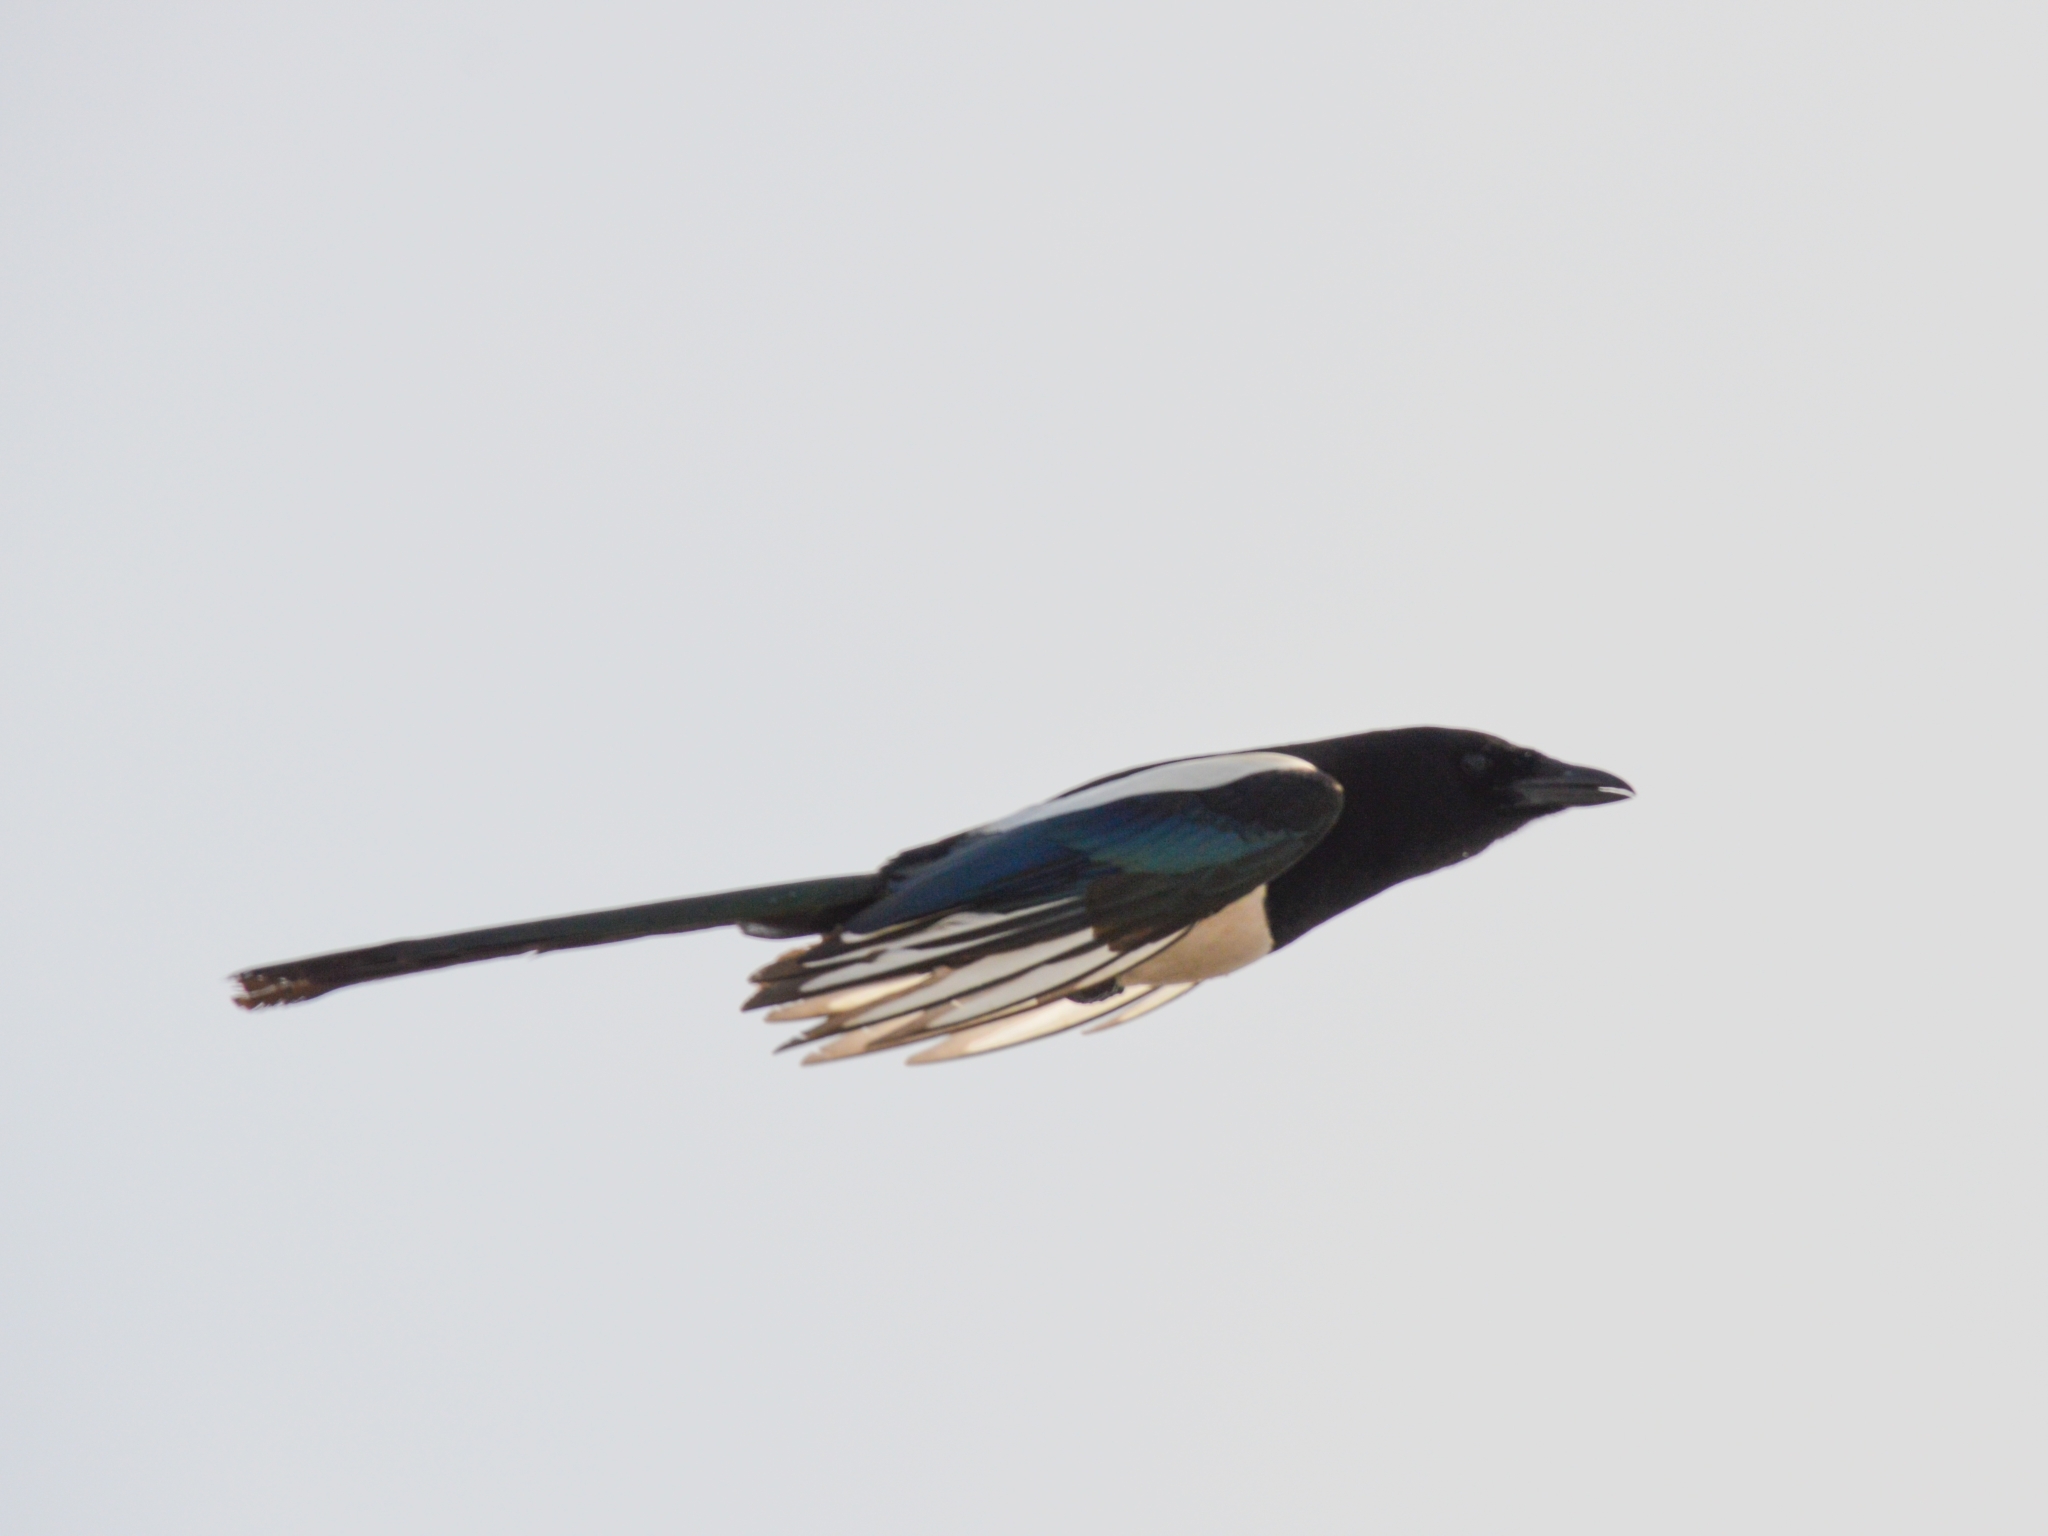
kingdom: Animalia
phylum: Chordata
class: Aves
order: Passeriformes
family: Corvidae
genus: Pica
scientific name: Pica pica
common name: Eurasian magpie
